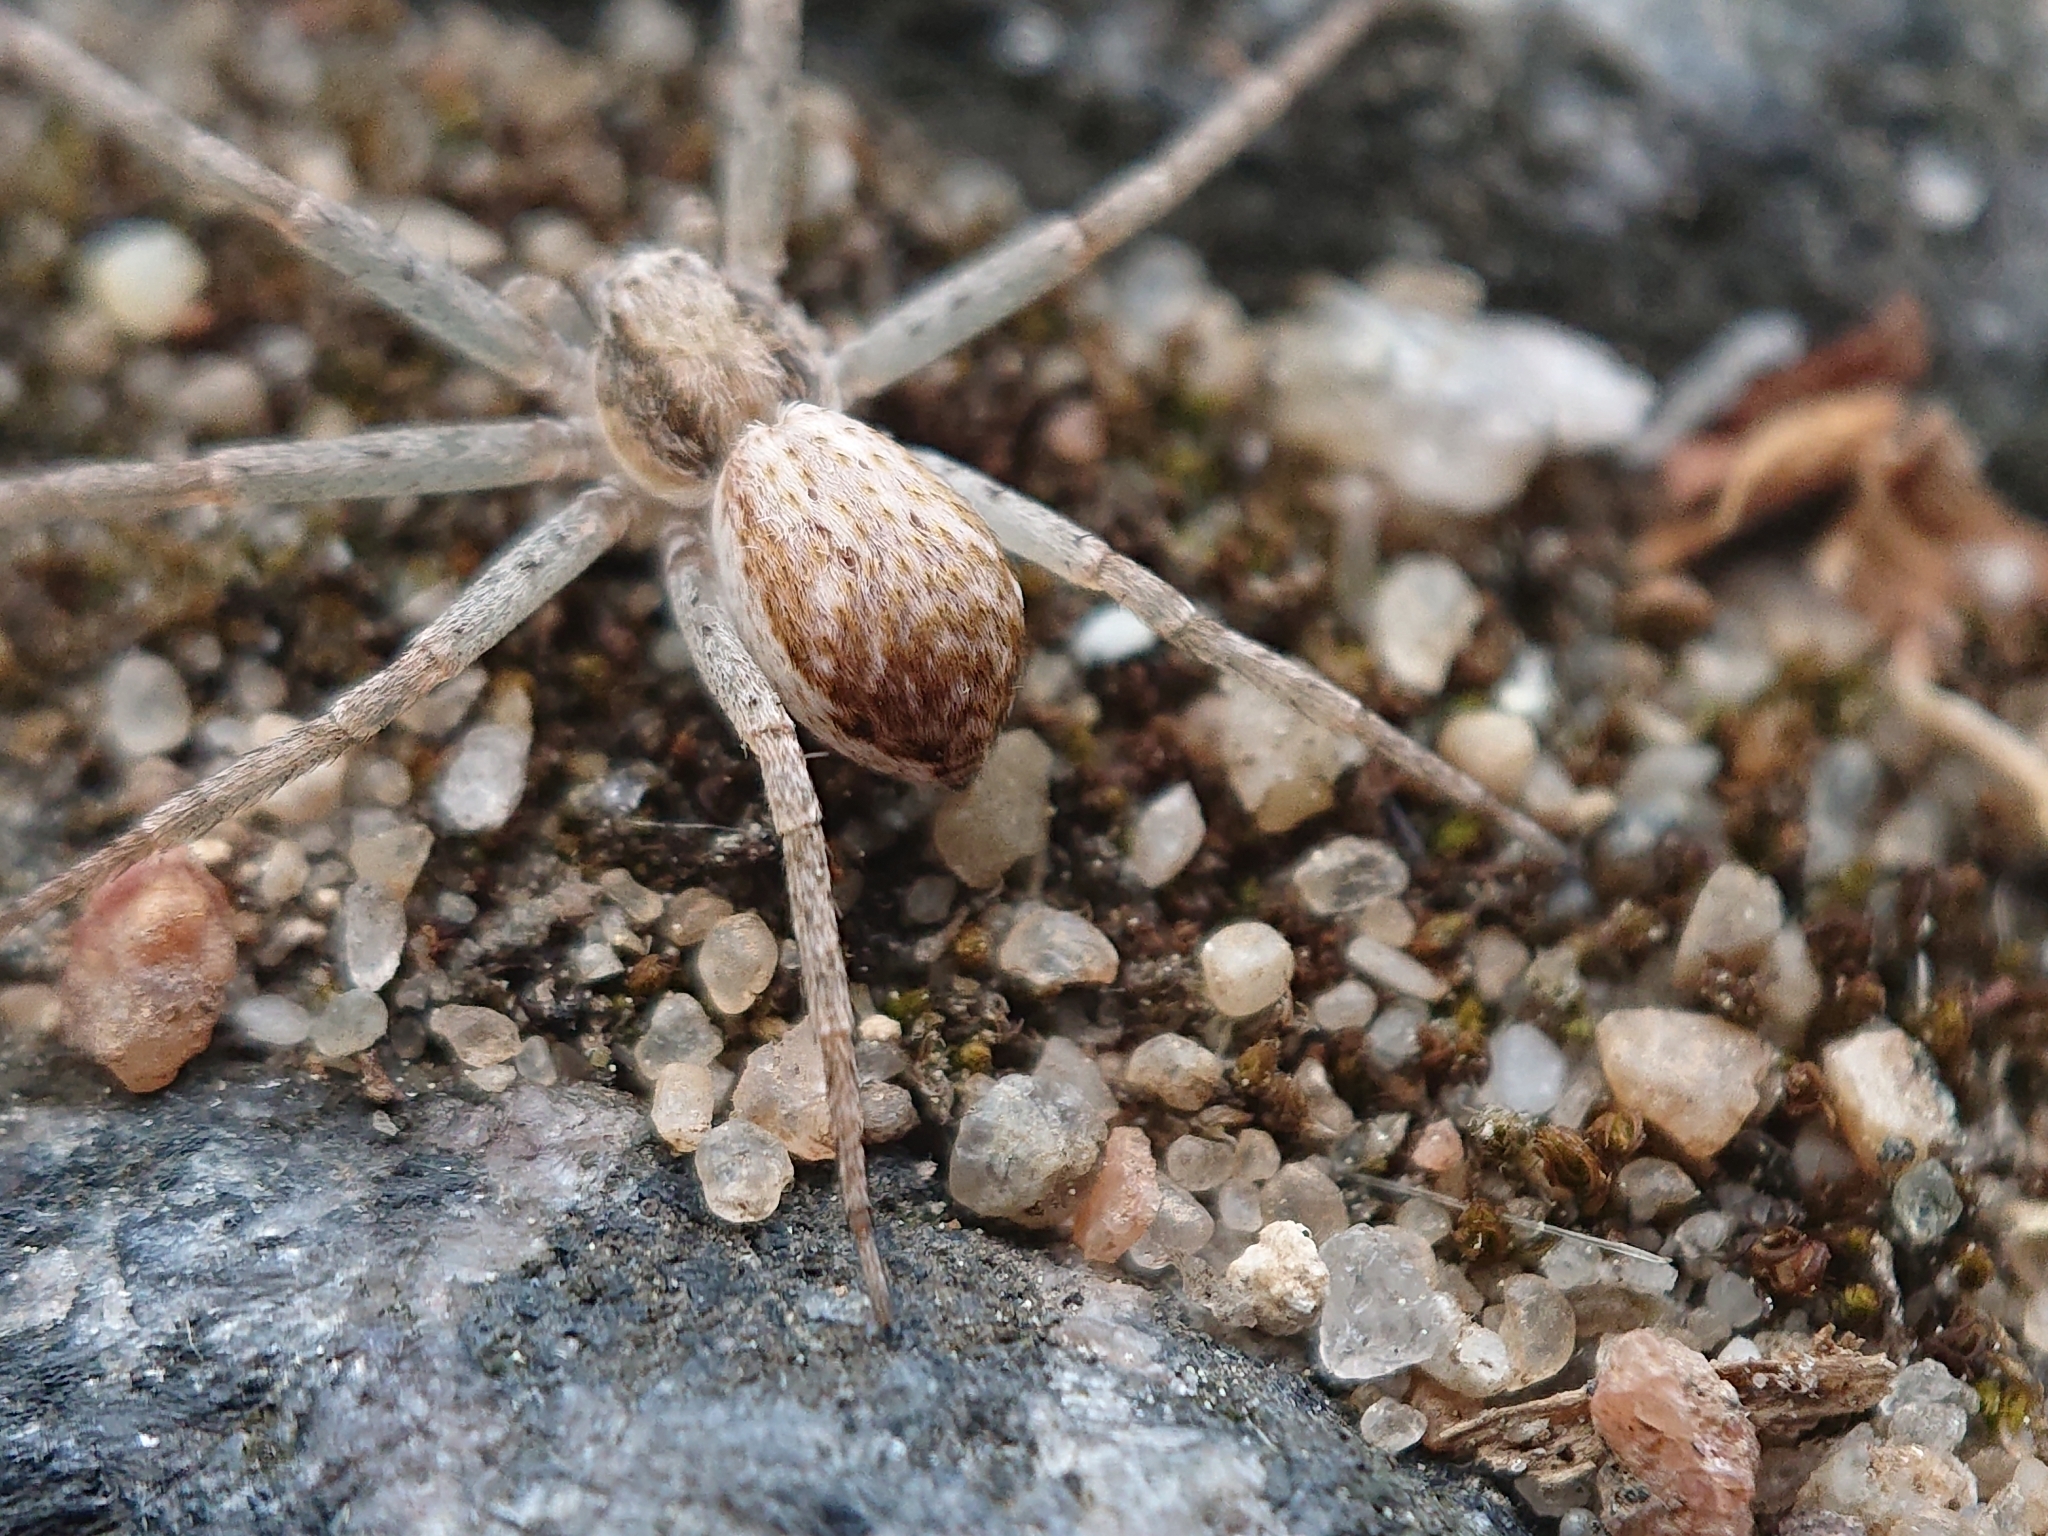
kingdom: Animalia
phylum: Arthropoda
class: Arachnida
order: Araneae
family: Philodromidae
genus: Philodromus
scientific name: Philodromus dispar
